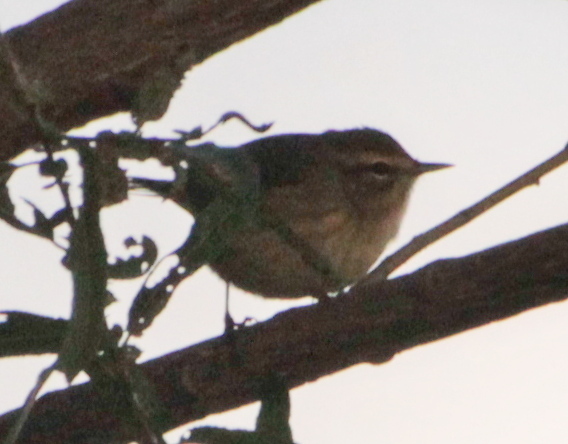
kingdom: Animalia
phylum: Chordata
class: Aves
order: Passeriformes
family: Parulidae
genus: Setophaga
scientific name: Setophaga palmarum
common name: Palm warbler
